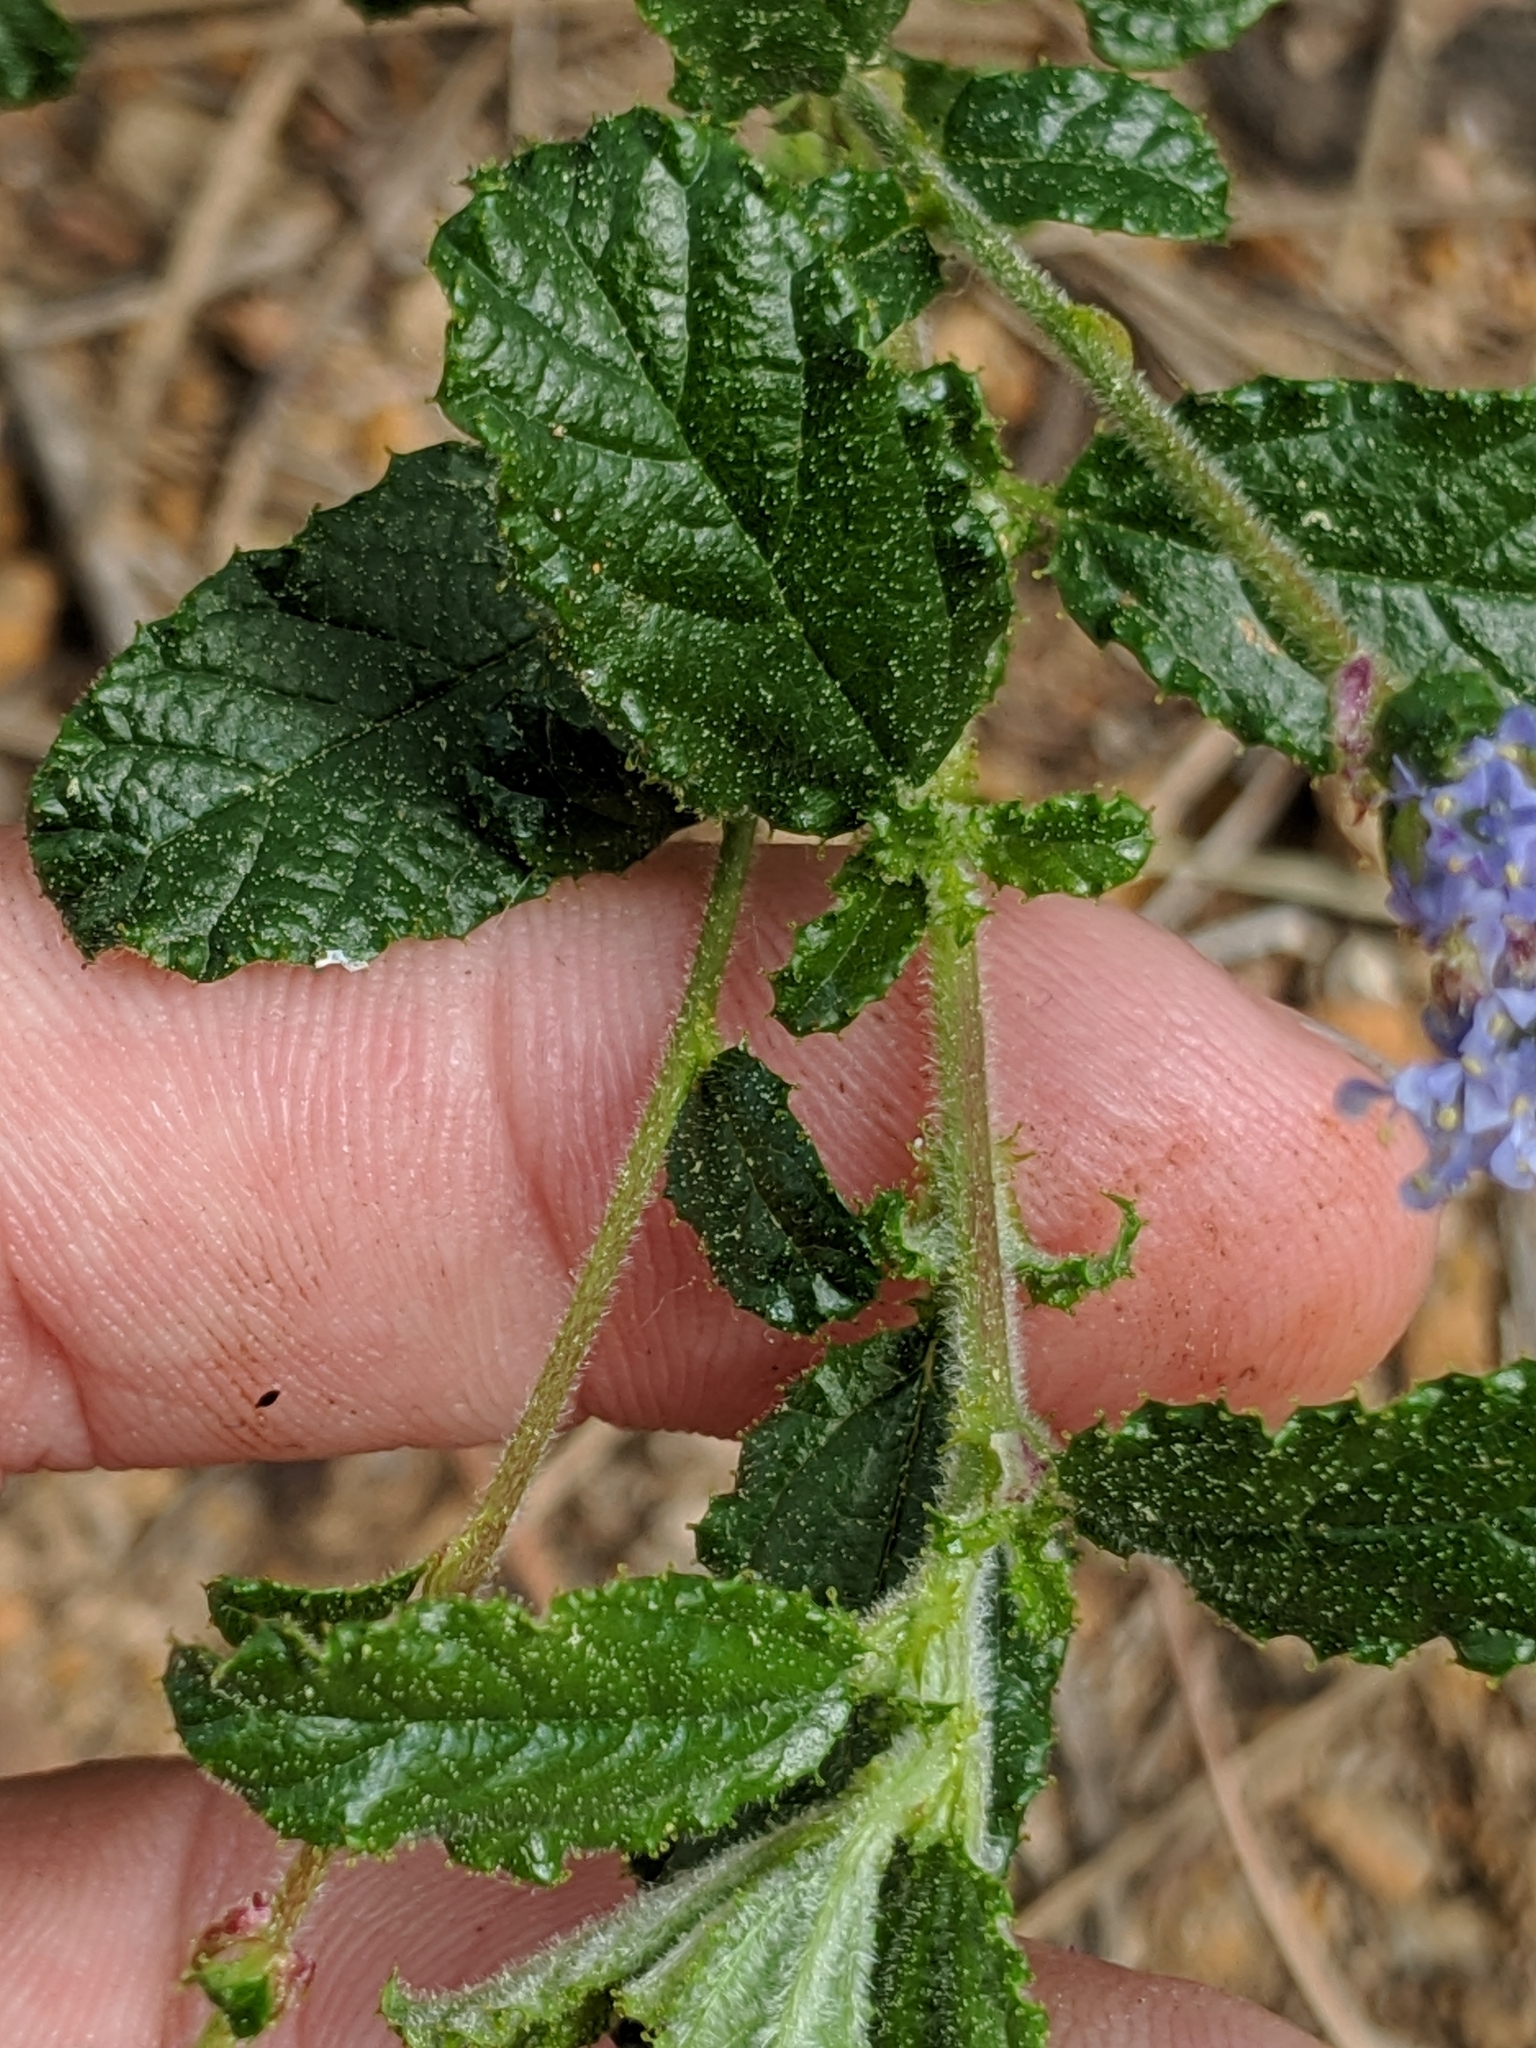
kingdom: Plantae
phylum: Tracheophyta
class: Magnoliopsida
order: Rosales
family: Rhamnaceae
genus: Ceanothus
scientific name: Ceanothus foliosus
